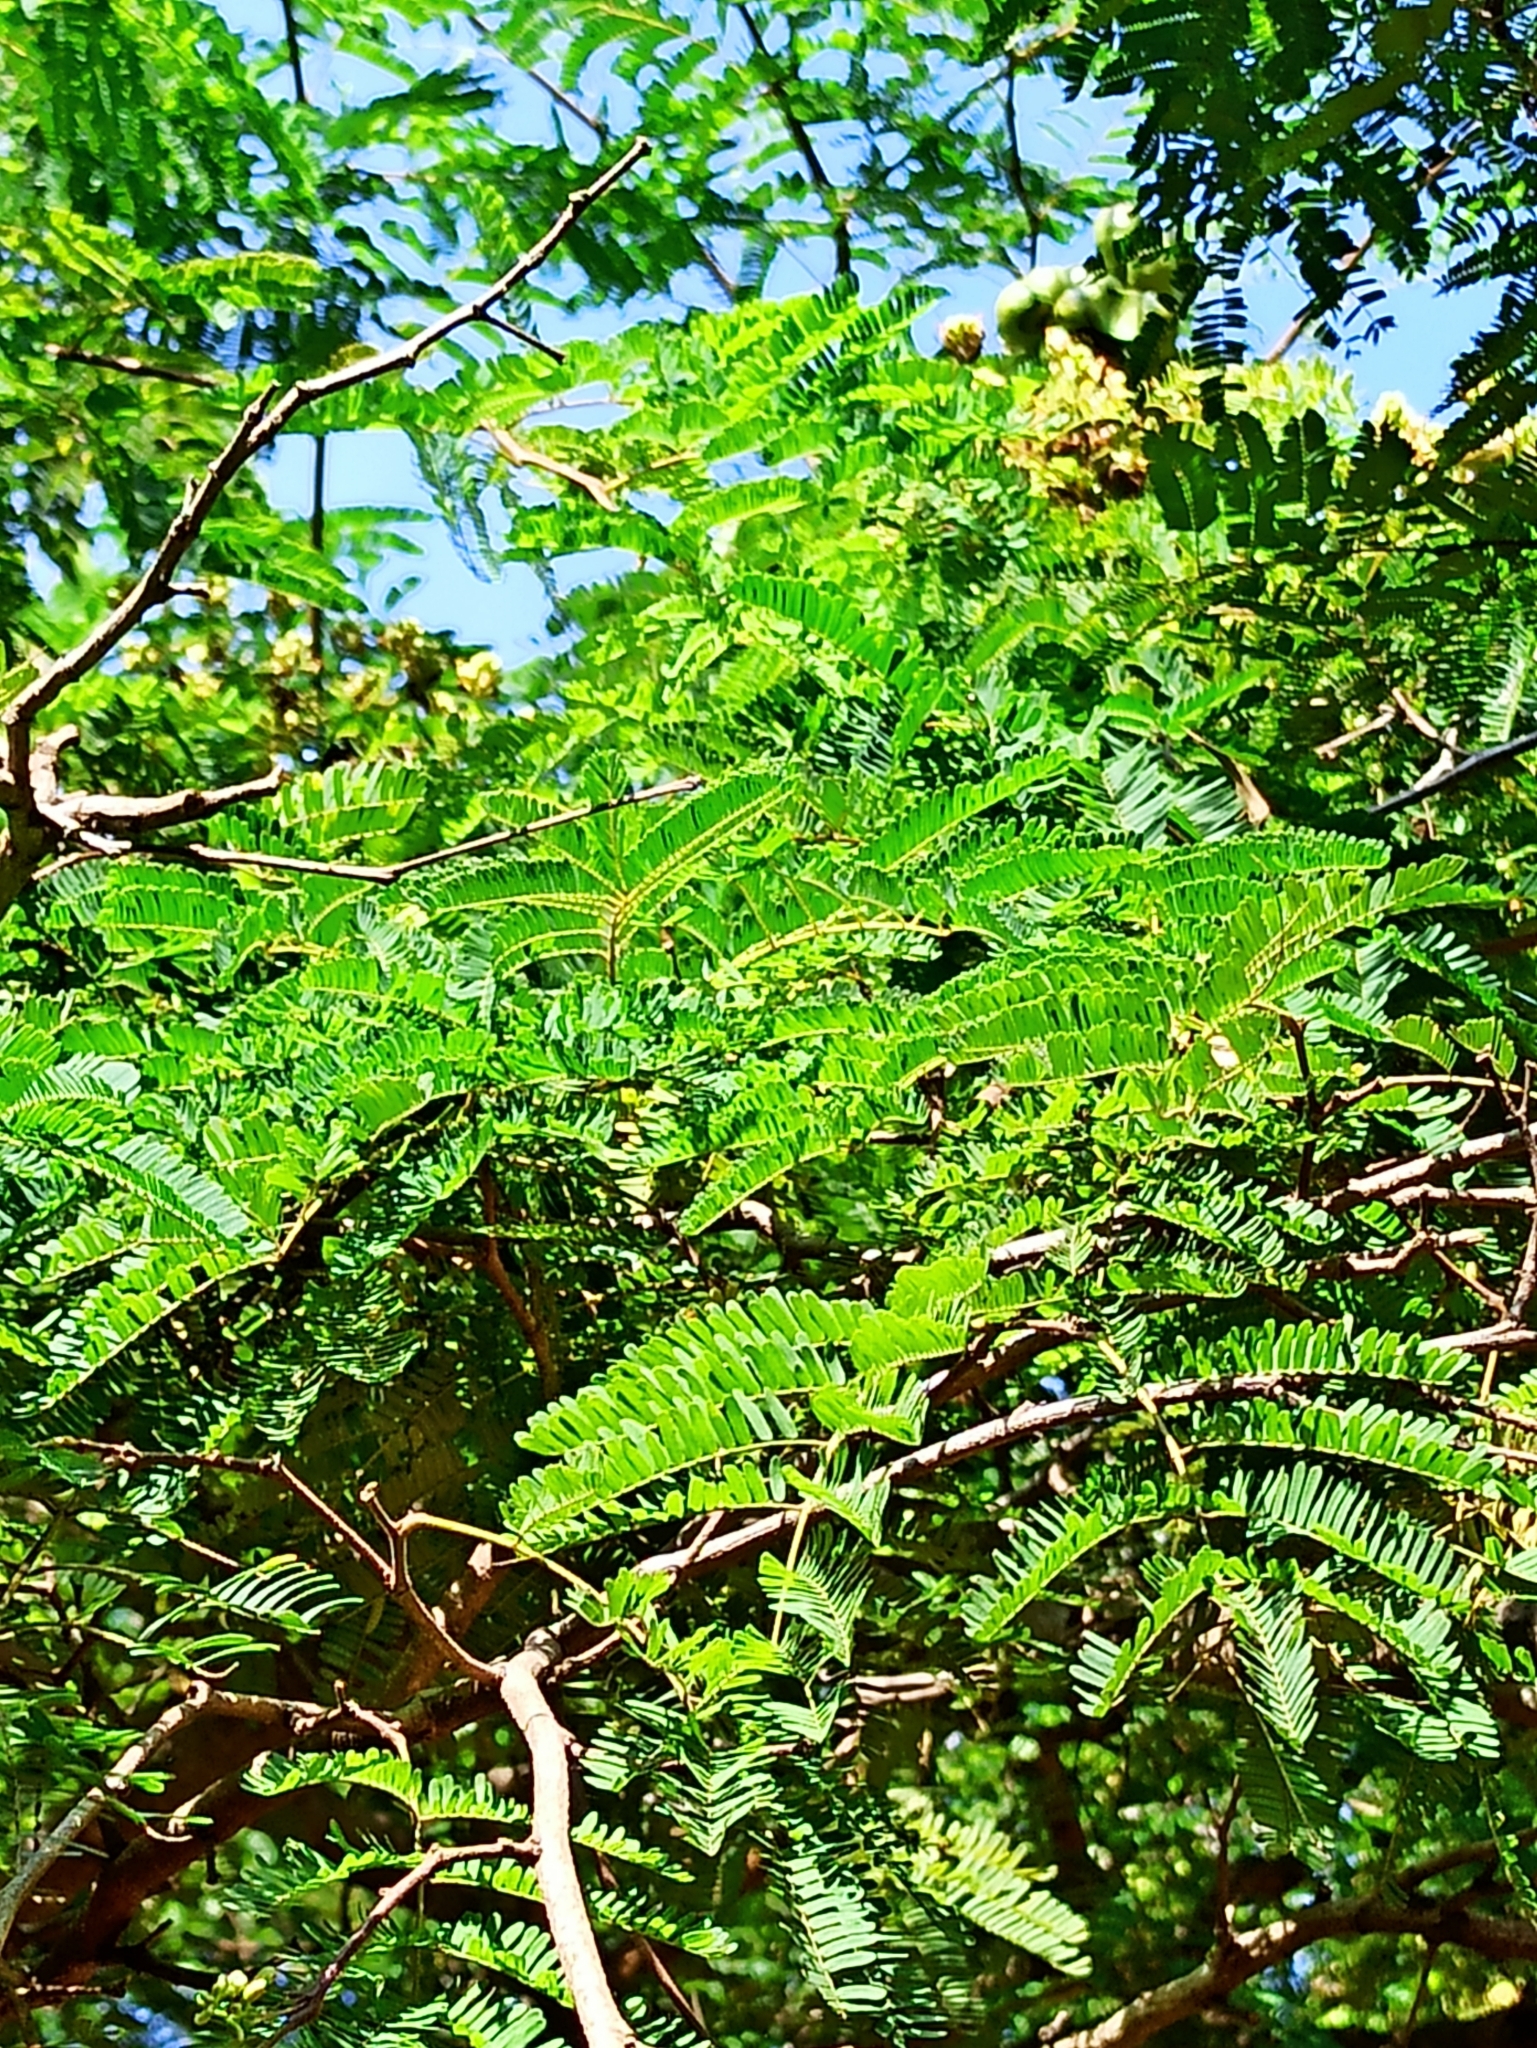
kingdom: Plantae
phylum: Tracheophyta
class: Magnoliopsida
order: Fabales
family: Fabaceae
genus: Libidibia
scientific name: Libidibia coriaria
